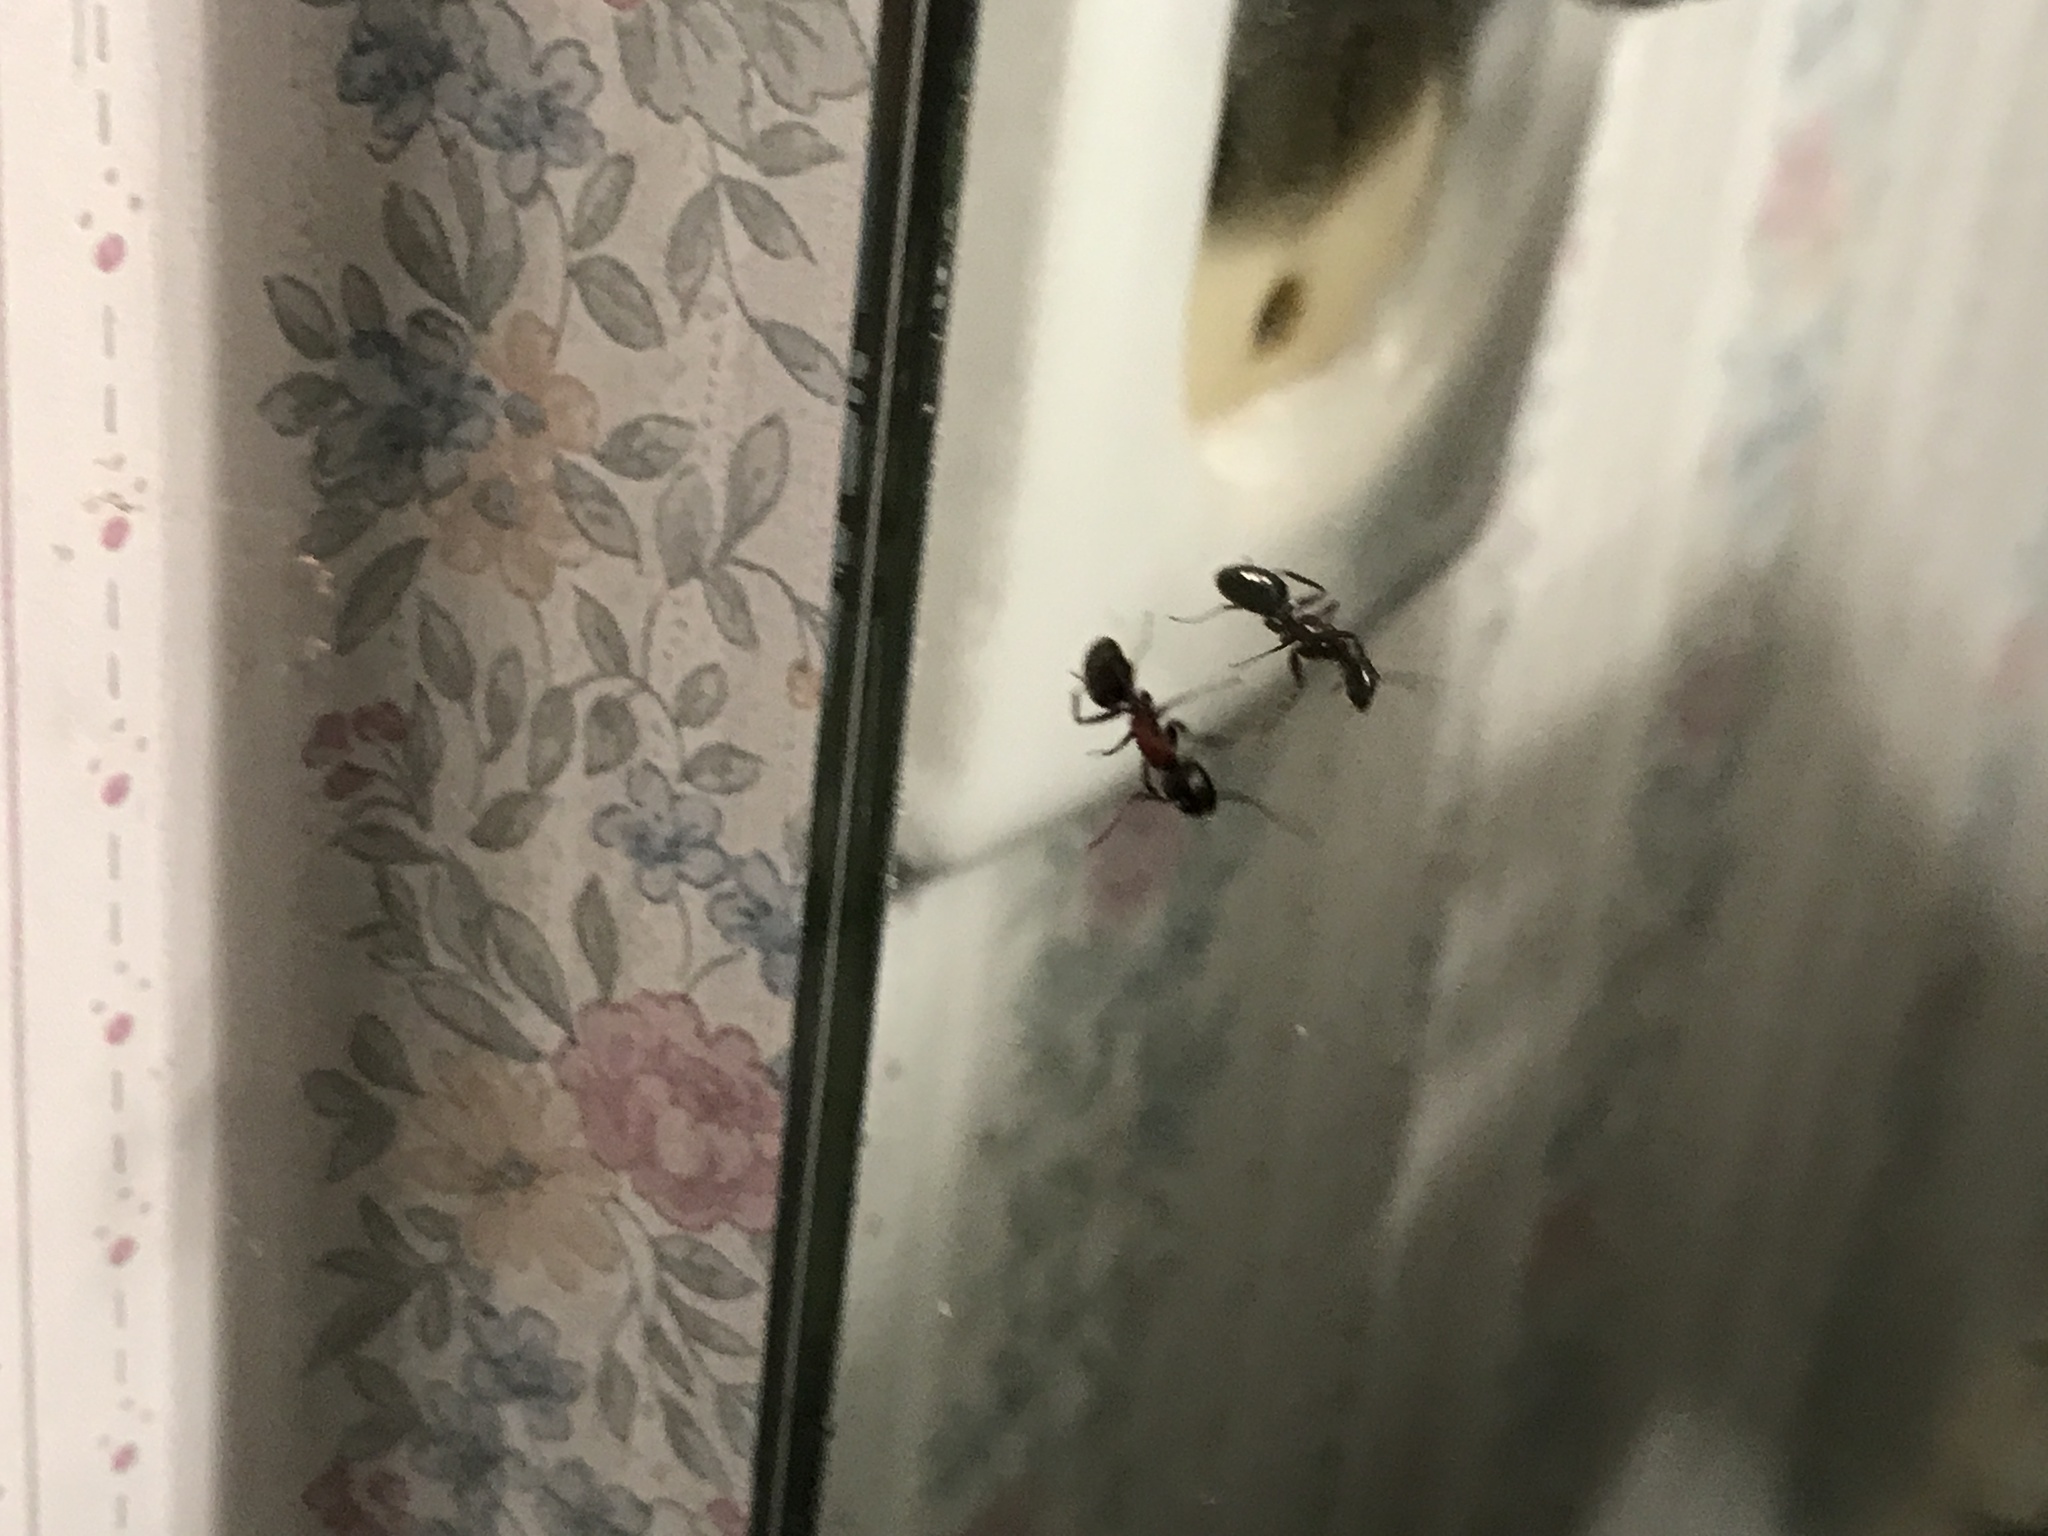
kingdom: Animalia
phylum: Arthropoda
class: Insecta
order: Hymenoptera
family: Formicidae
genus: Camponotus
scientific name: Camponotus novaeboracensis
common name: New york carpenter ant
